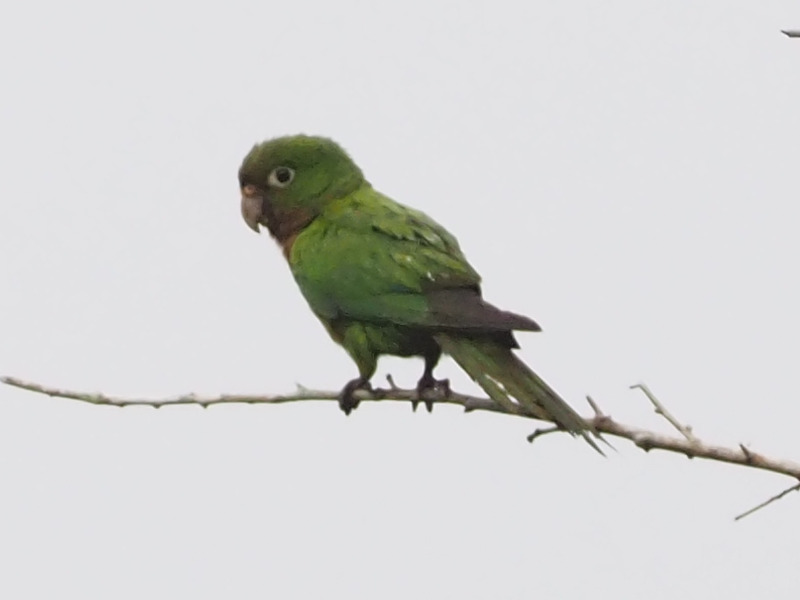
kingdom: Animalia
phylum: Chordata
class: Aves
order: Psittaciformes
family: Psittacidae
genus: Aratinga
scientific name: Aratinga nana
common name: Olive-throated parakeet
